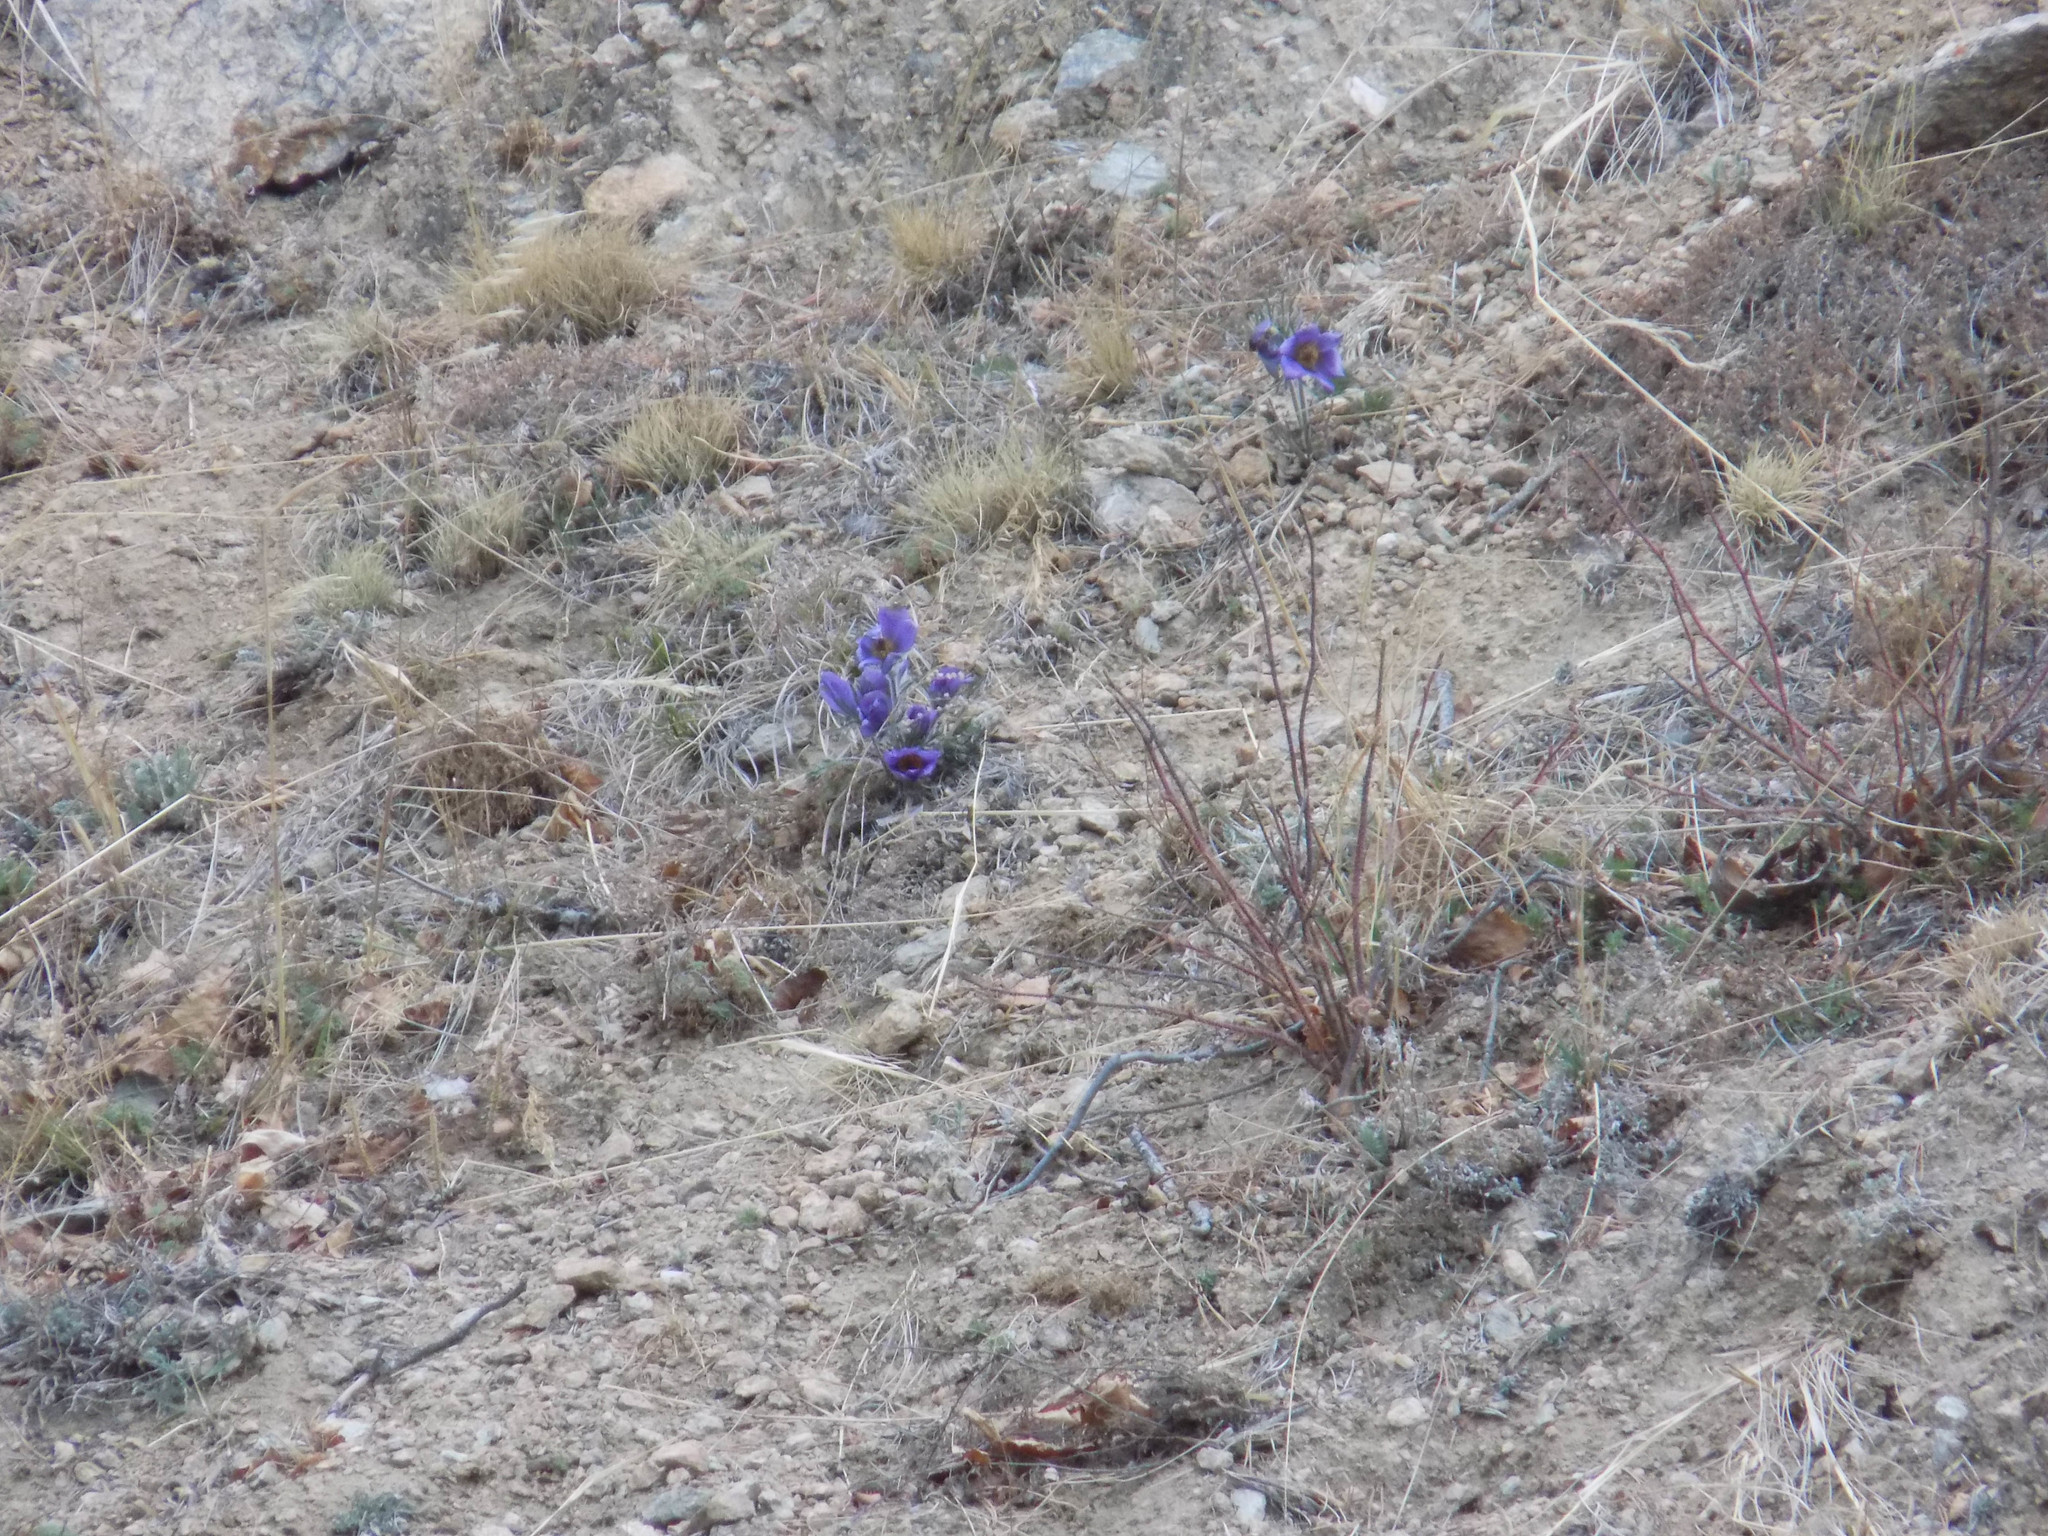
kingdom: Plantae
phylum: Tracheophyta
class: Magnoliopsida
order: Ranunculales
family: Ranunculaceae
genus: Pulsatilla
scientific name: Pulsatilla turczaninovii
